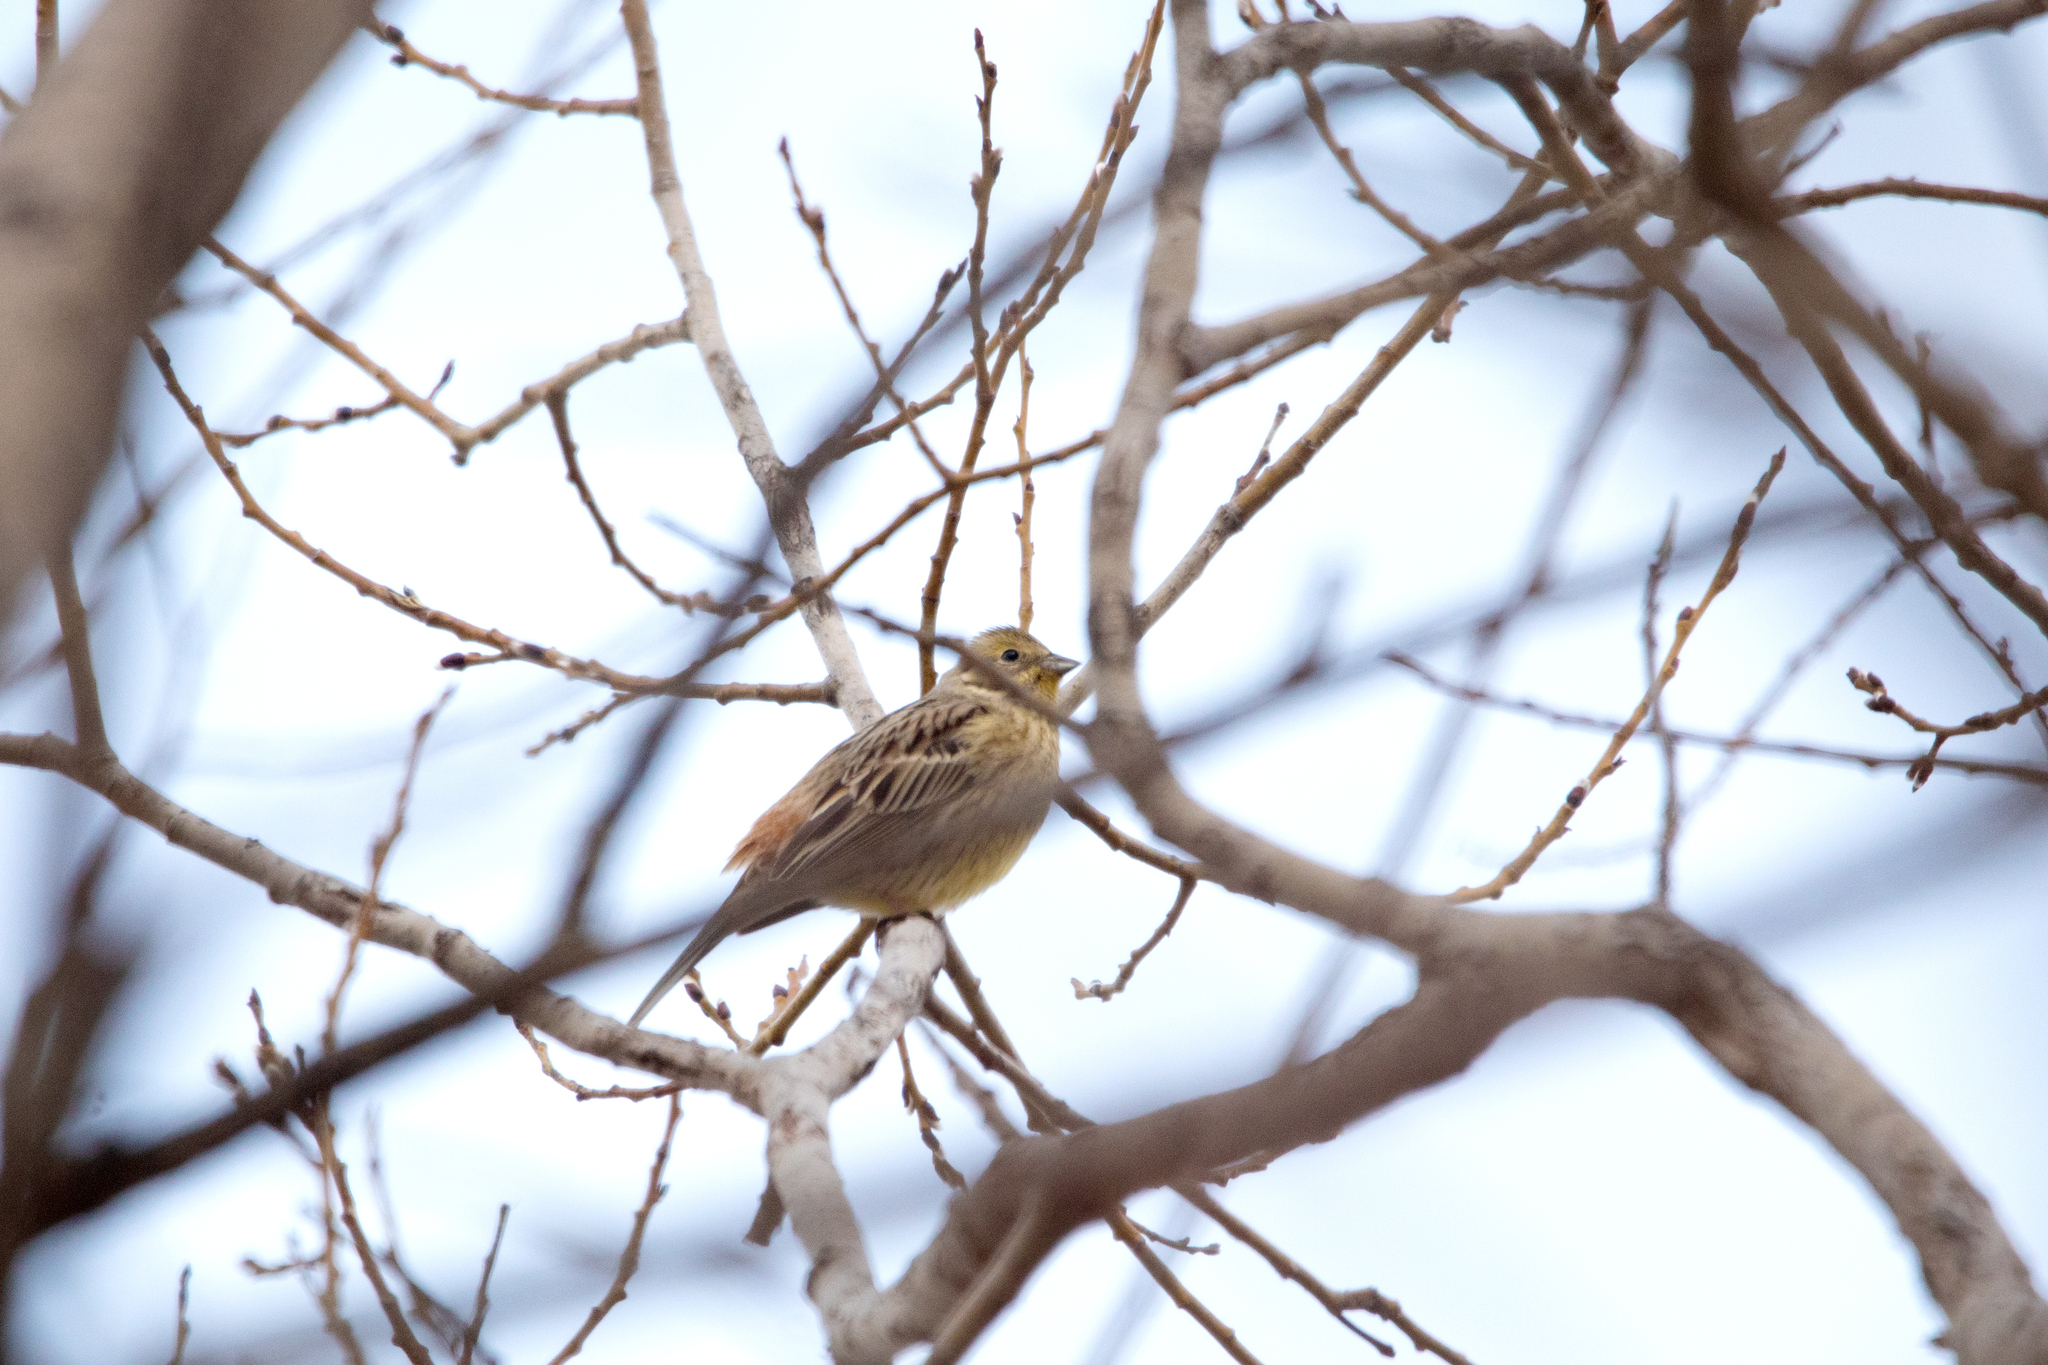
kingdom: Animalia
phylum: Chordata
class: Aves
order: Passeriformes
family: Emberizidae
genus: Emberiza
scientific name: Emberiza citrinella
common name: Yellowhammer
